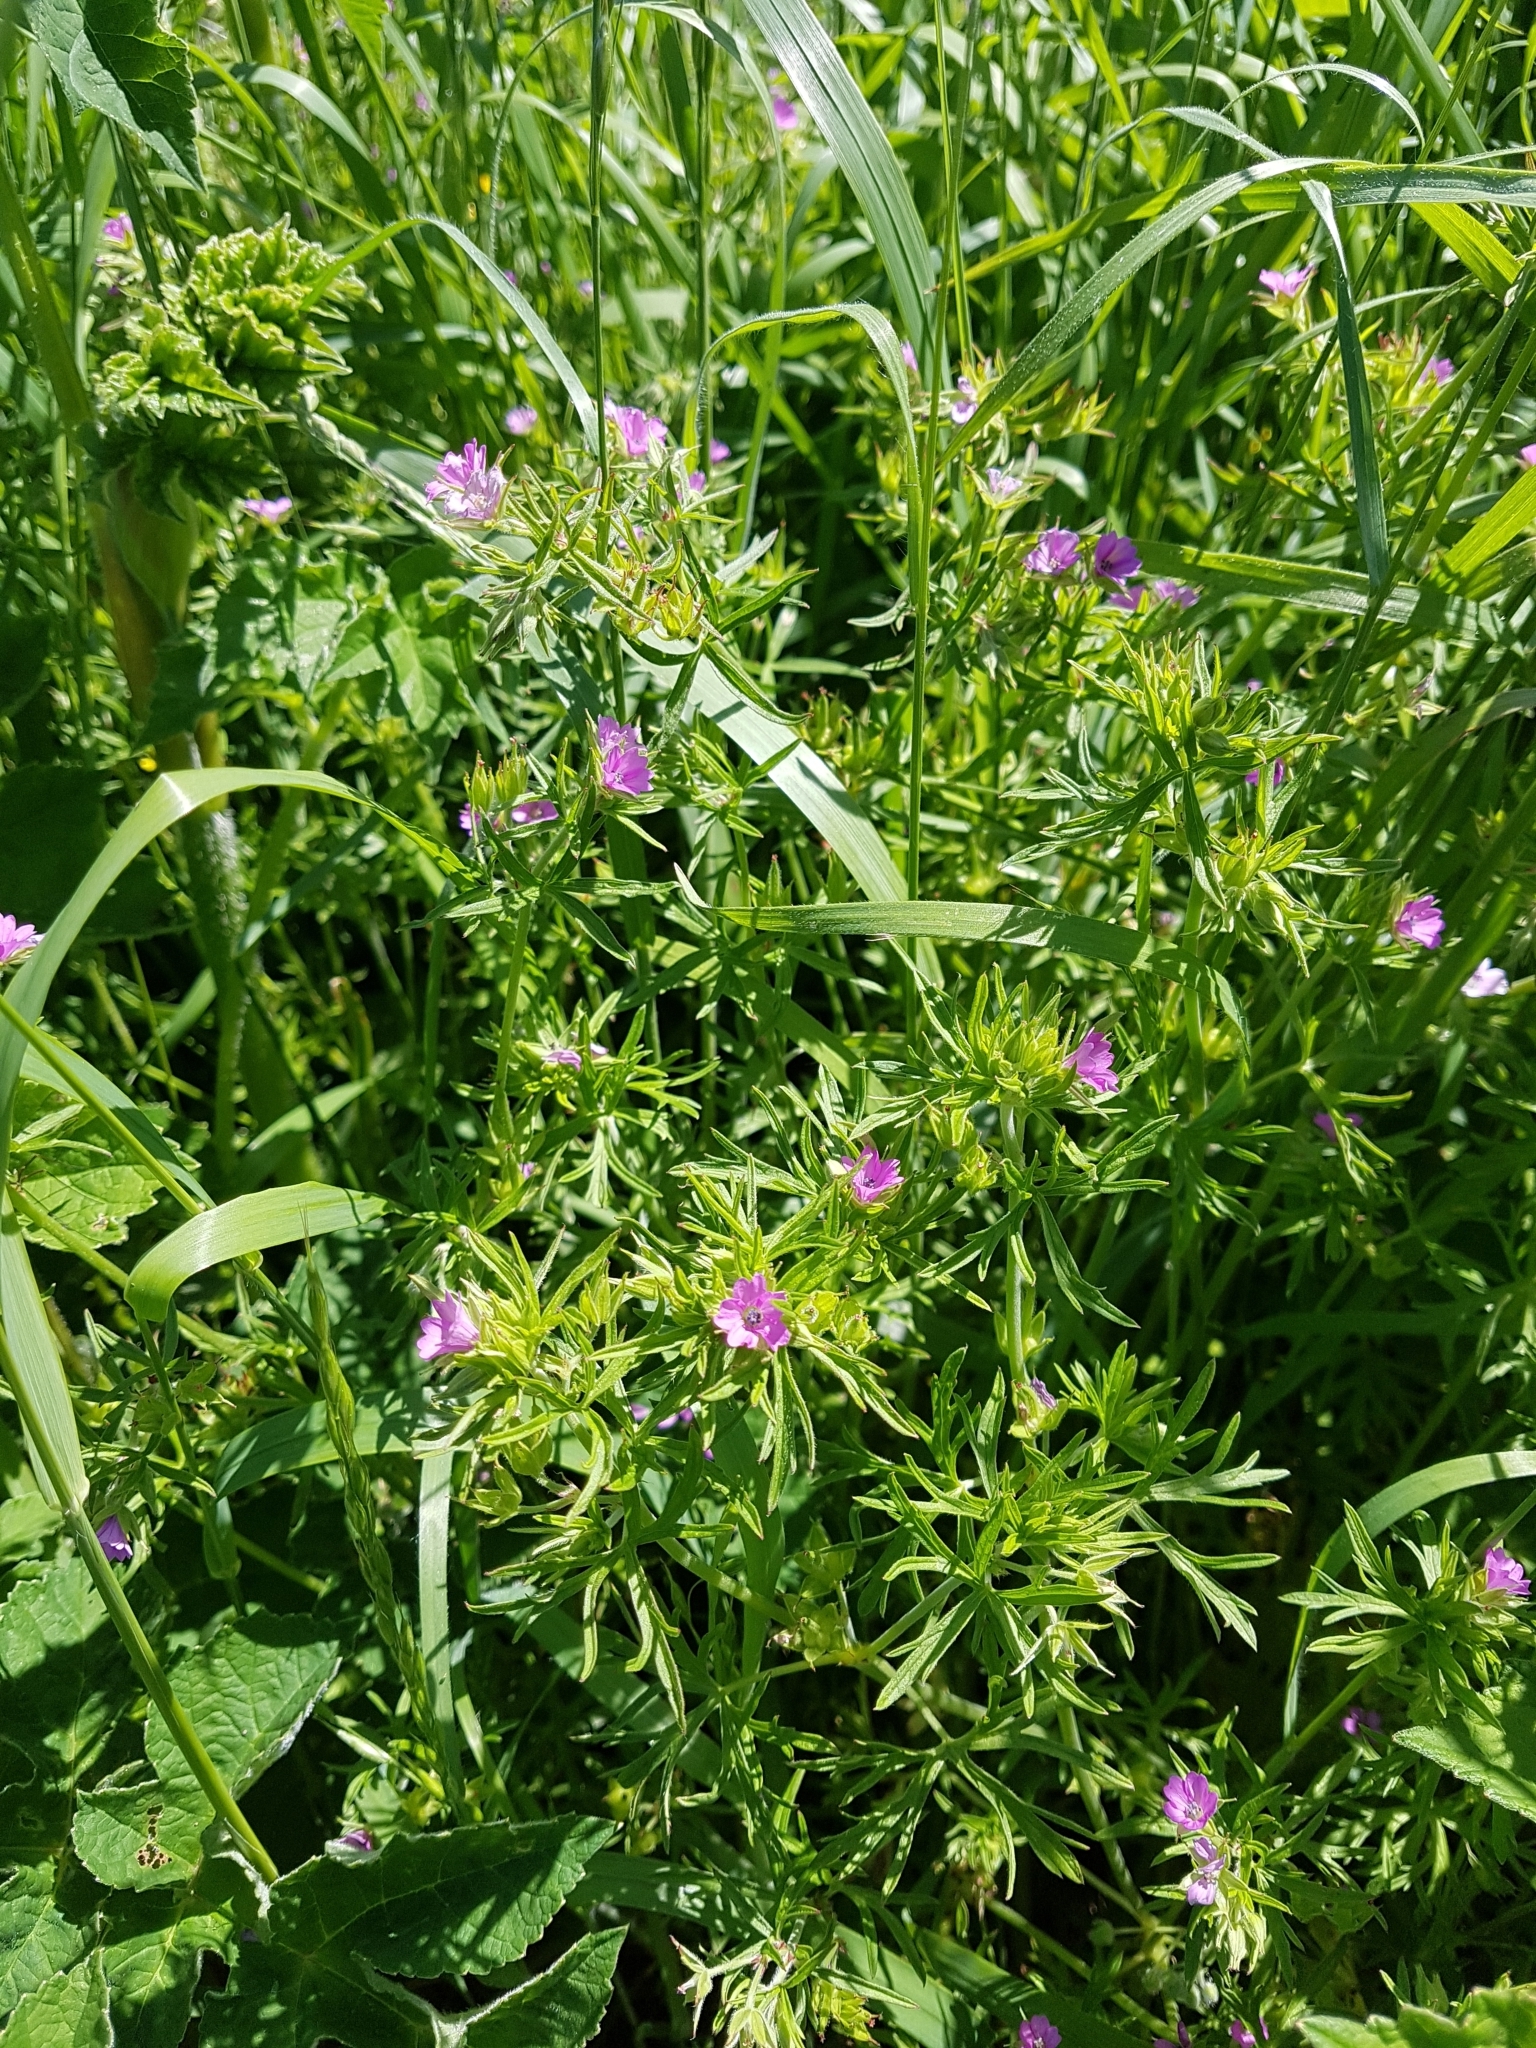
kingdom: Plantae
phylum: Tracheophyta
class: Magnoliopsida
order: Geraniales
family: Geraniaceae
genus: Geranium
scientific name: Geranium dissectum
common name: Cut-leaved crane's-bill
